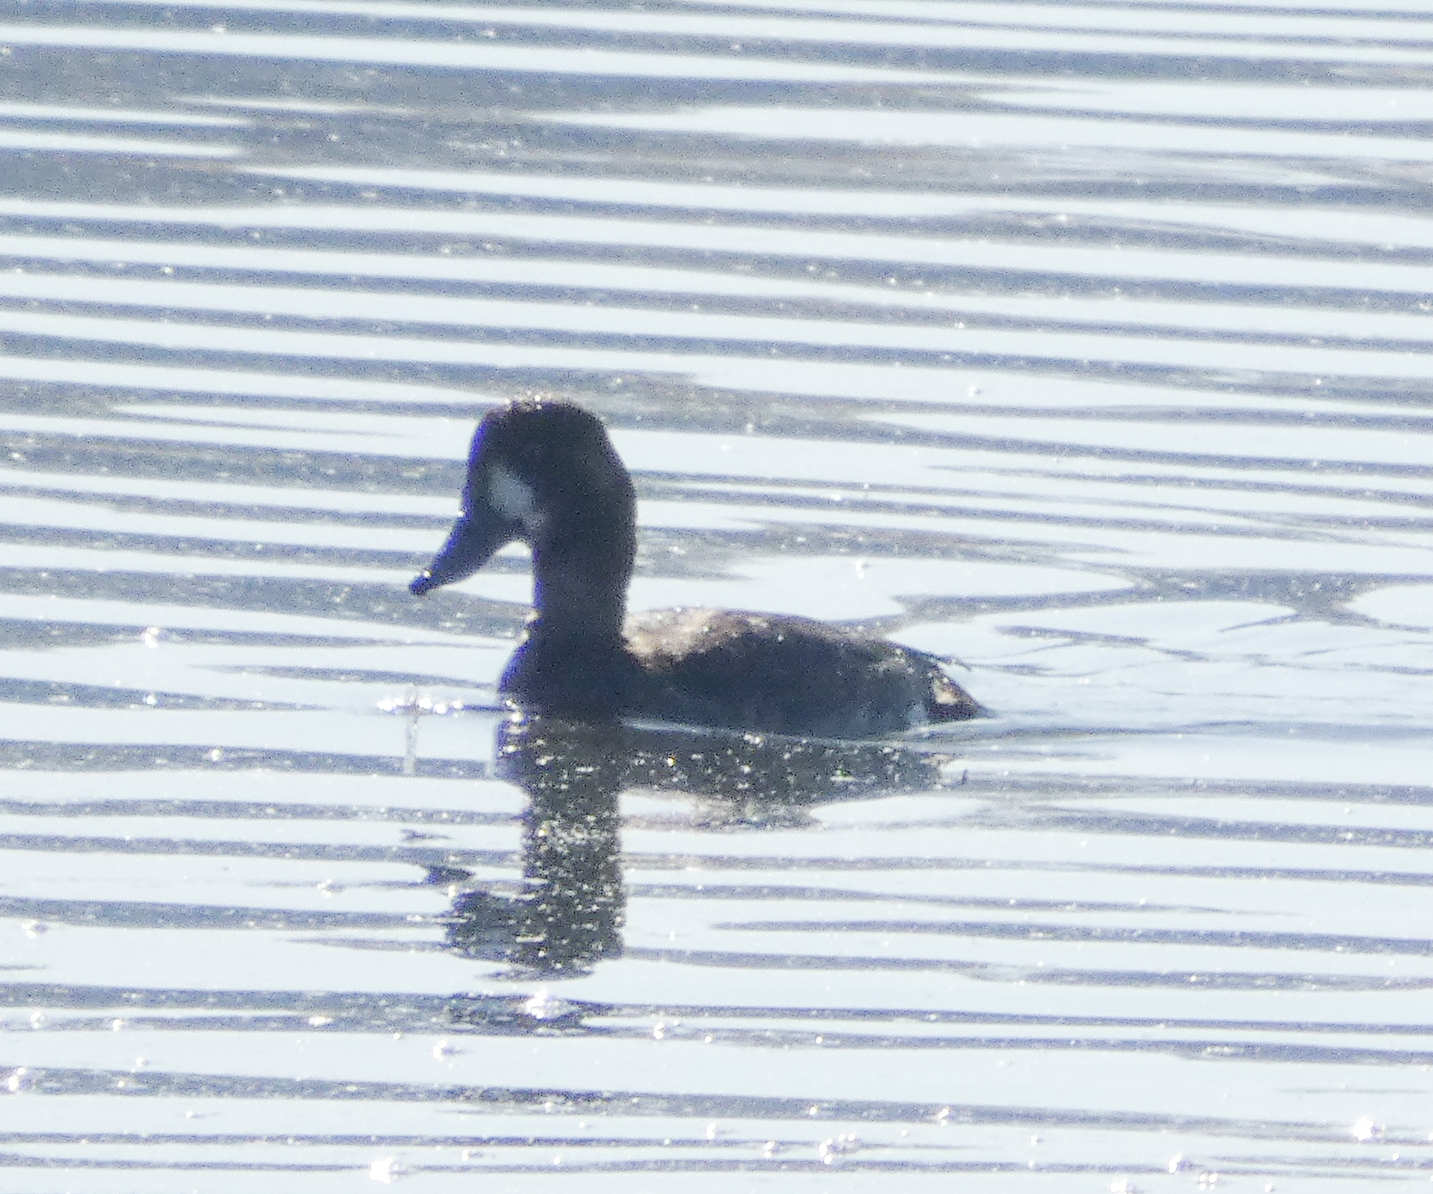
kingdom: Animalia
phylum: Chordata
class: Aves
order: Anseriformes
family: Anatidae
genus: Aythya
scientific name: Aythya marila
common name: Greater scaup
